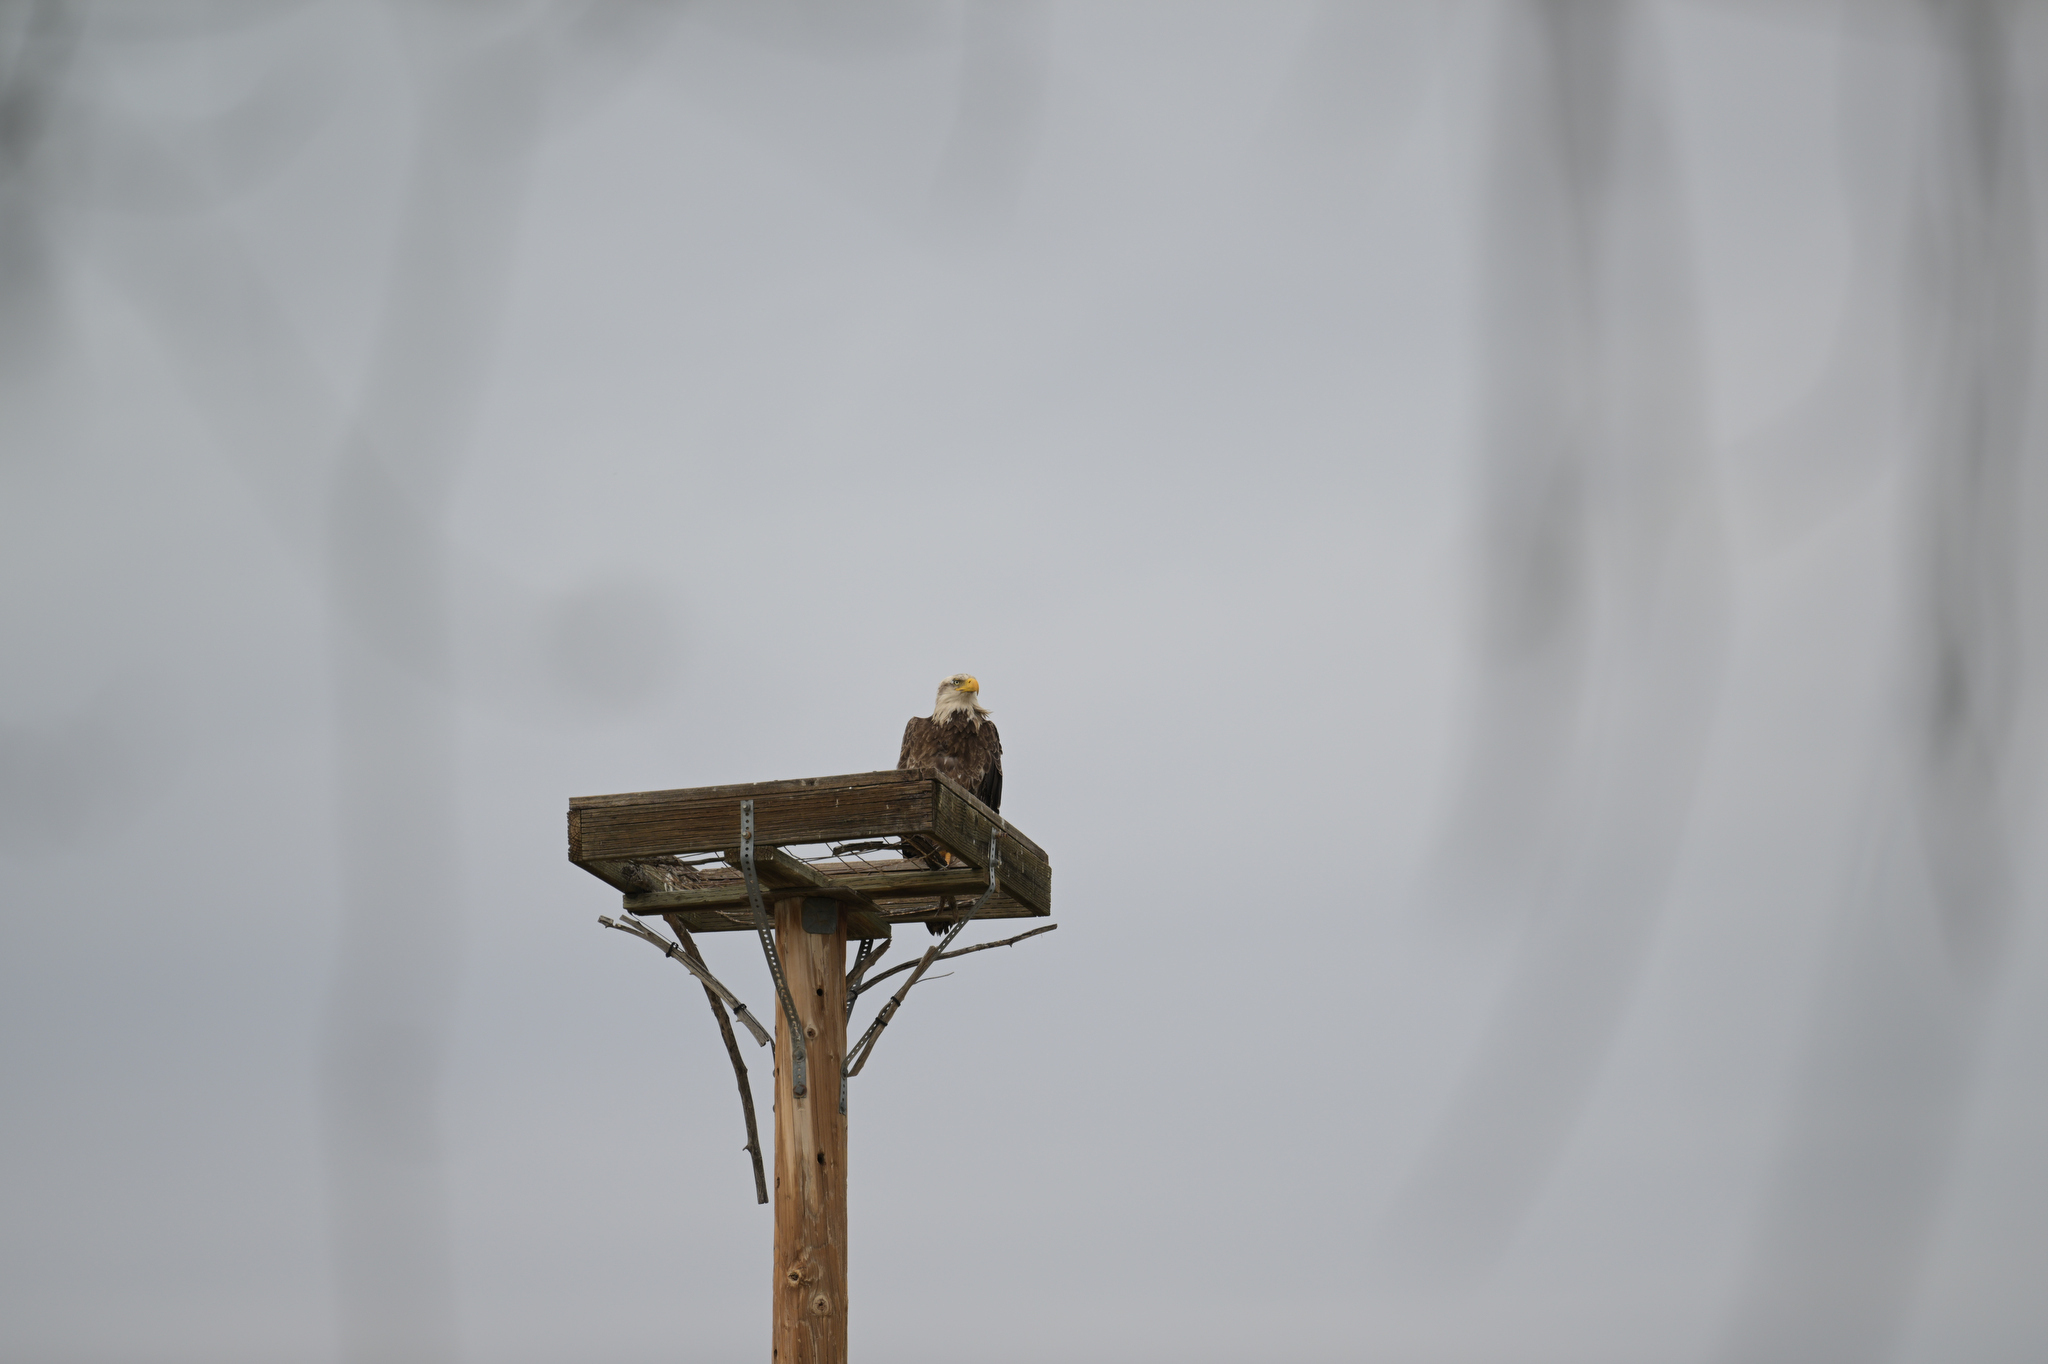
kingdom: Animalia
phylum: Chordata
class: Aves
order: Accipitriformes
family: Accipitridae
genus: Haliaeetus
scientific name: Haliaeetus leucocephalus
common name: Bald eagle
